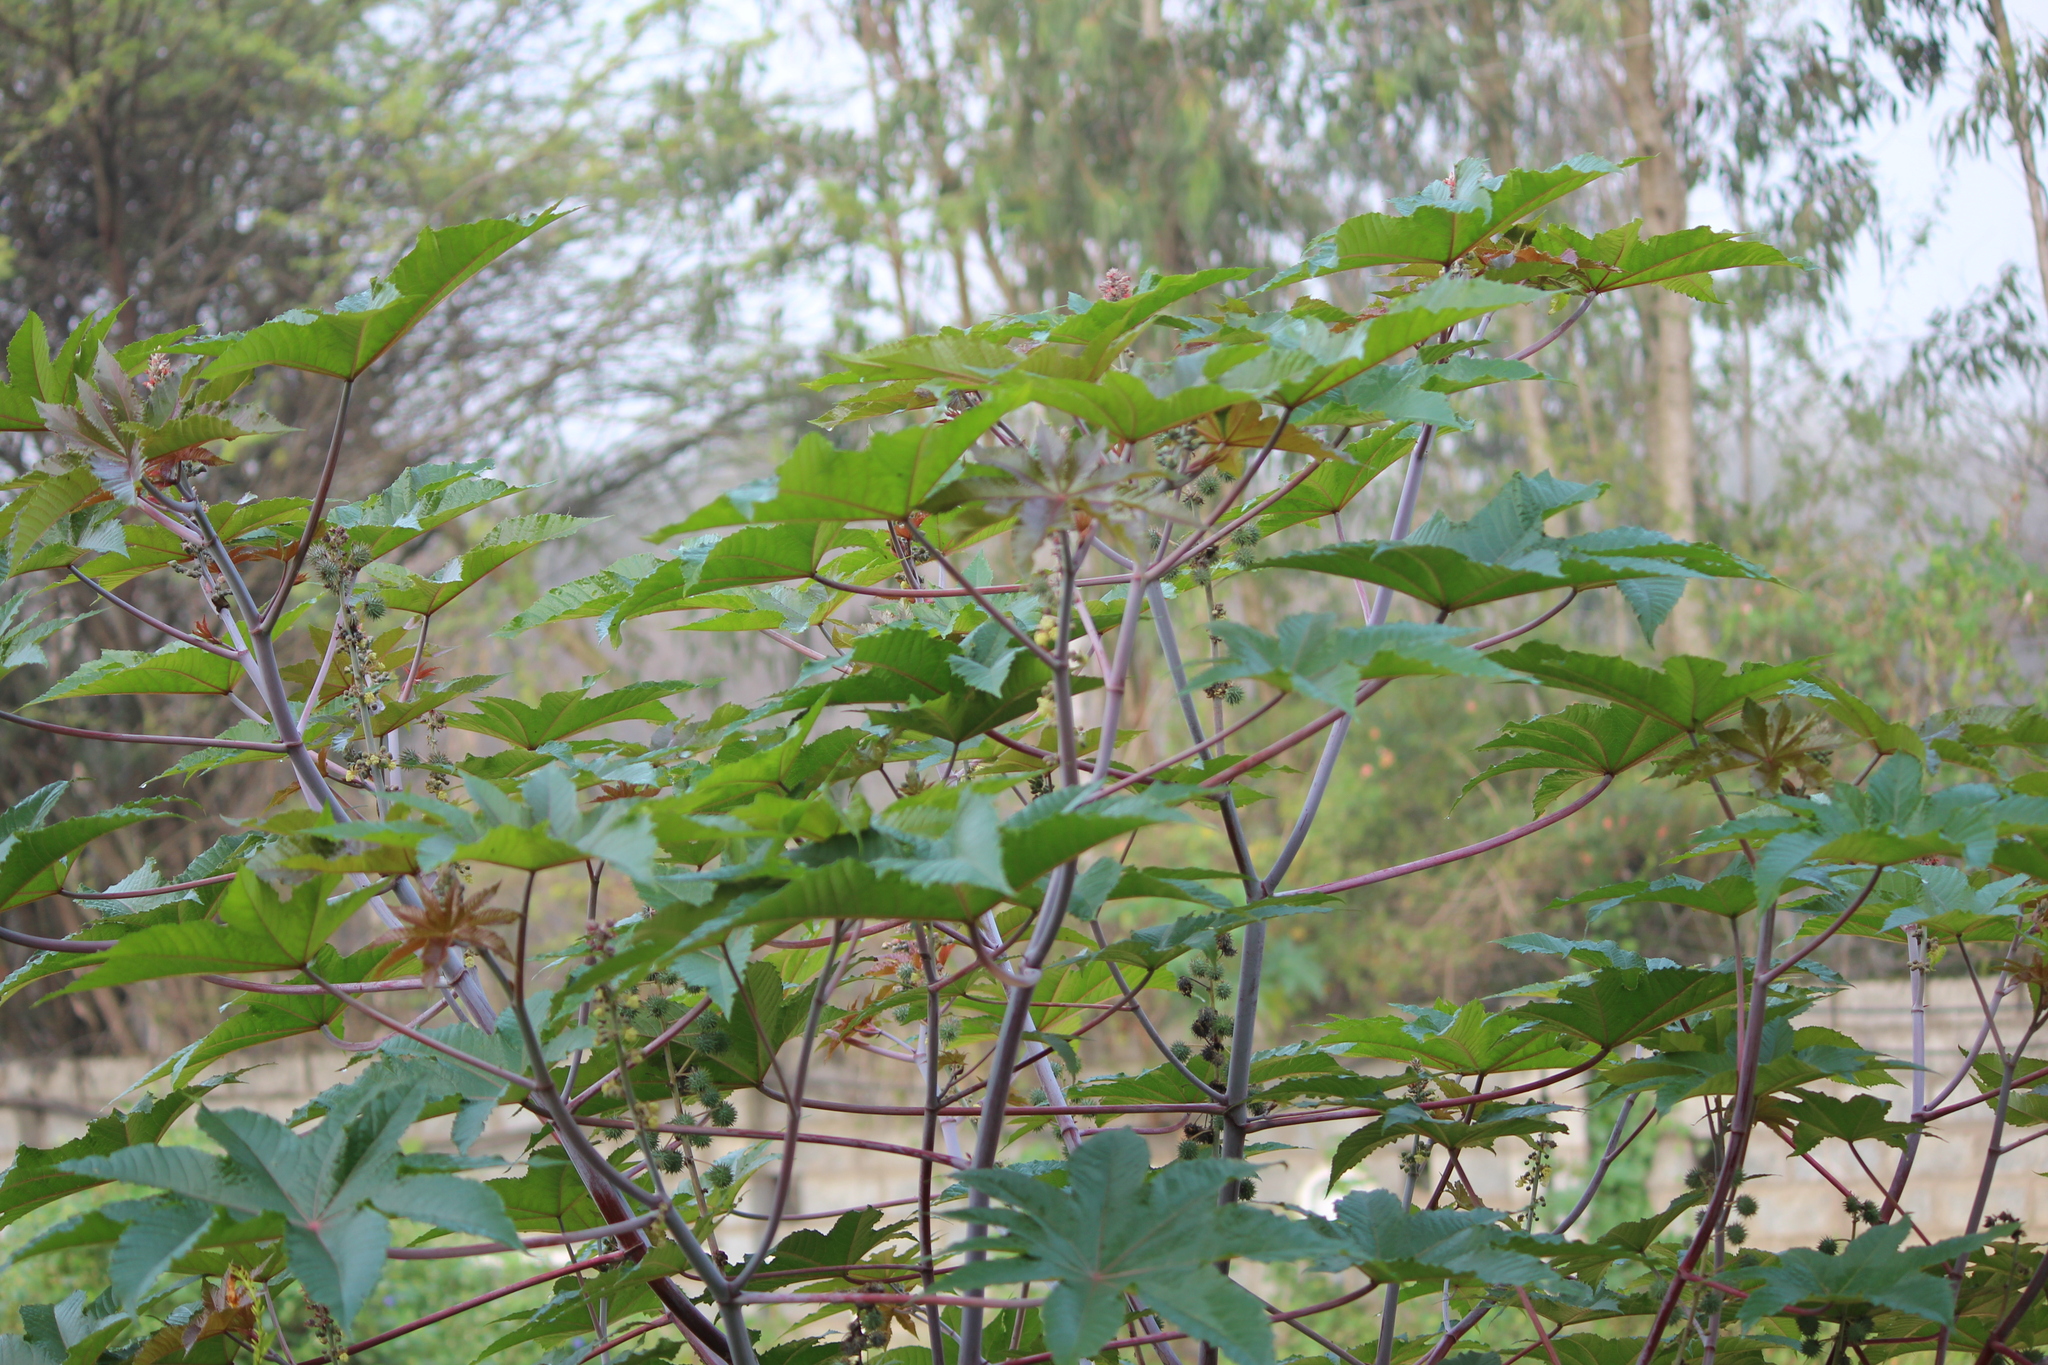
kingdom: Plantae
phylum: Tracheophyta
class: Magnoliopsida
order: Malpighiales
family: Euphorbiaceae
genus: Ricinus
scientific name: Ricinus communis
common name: Castor-oil-plant
